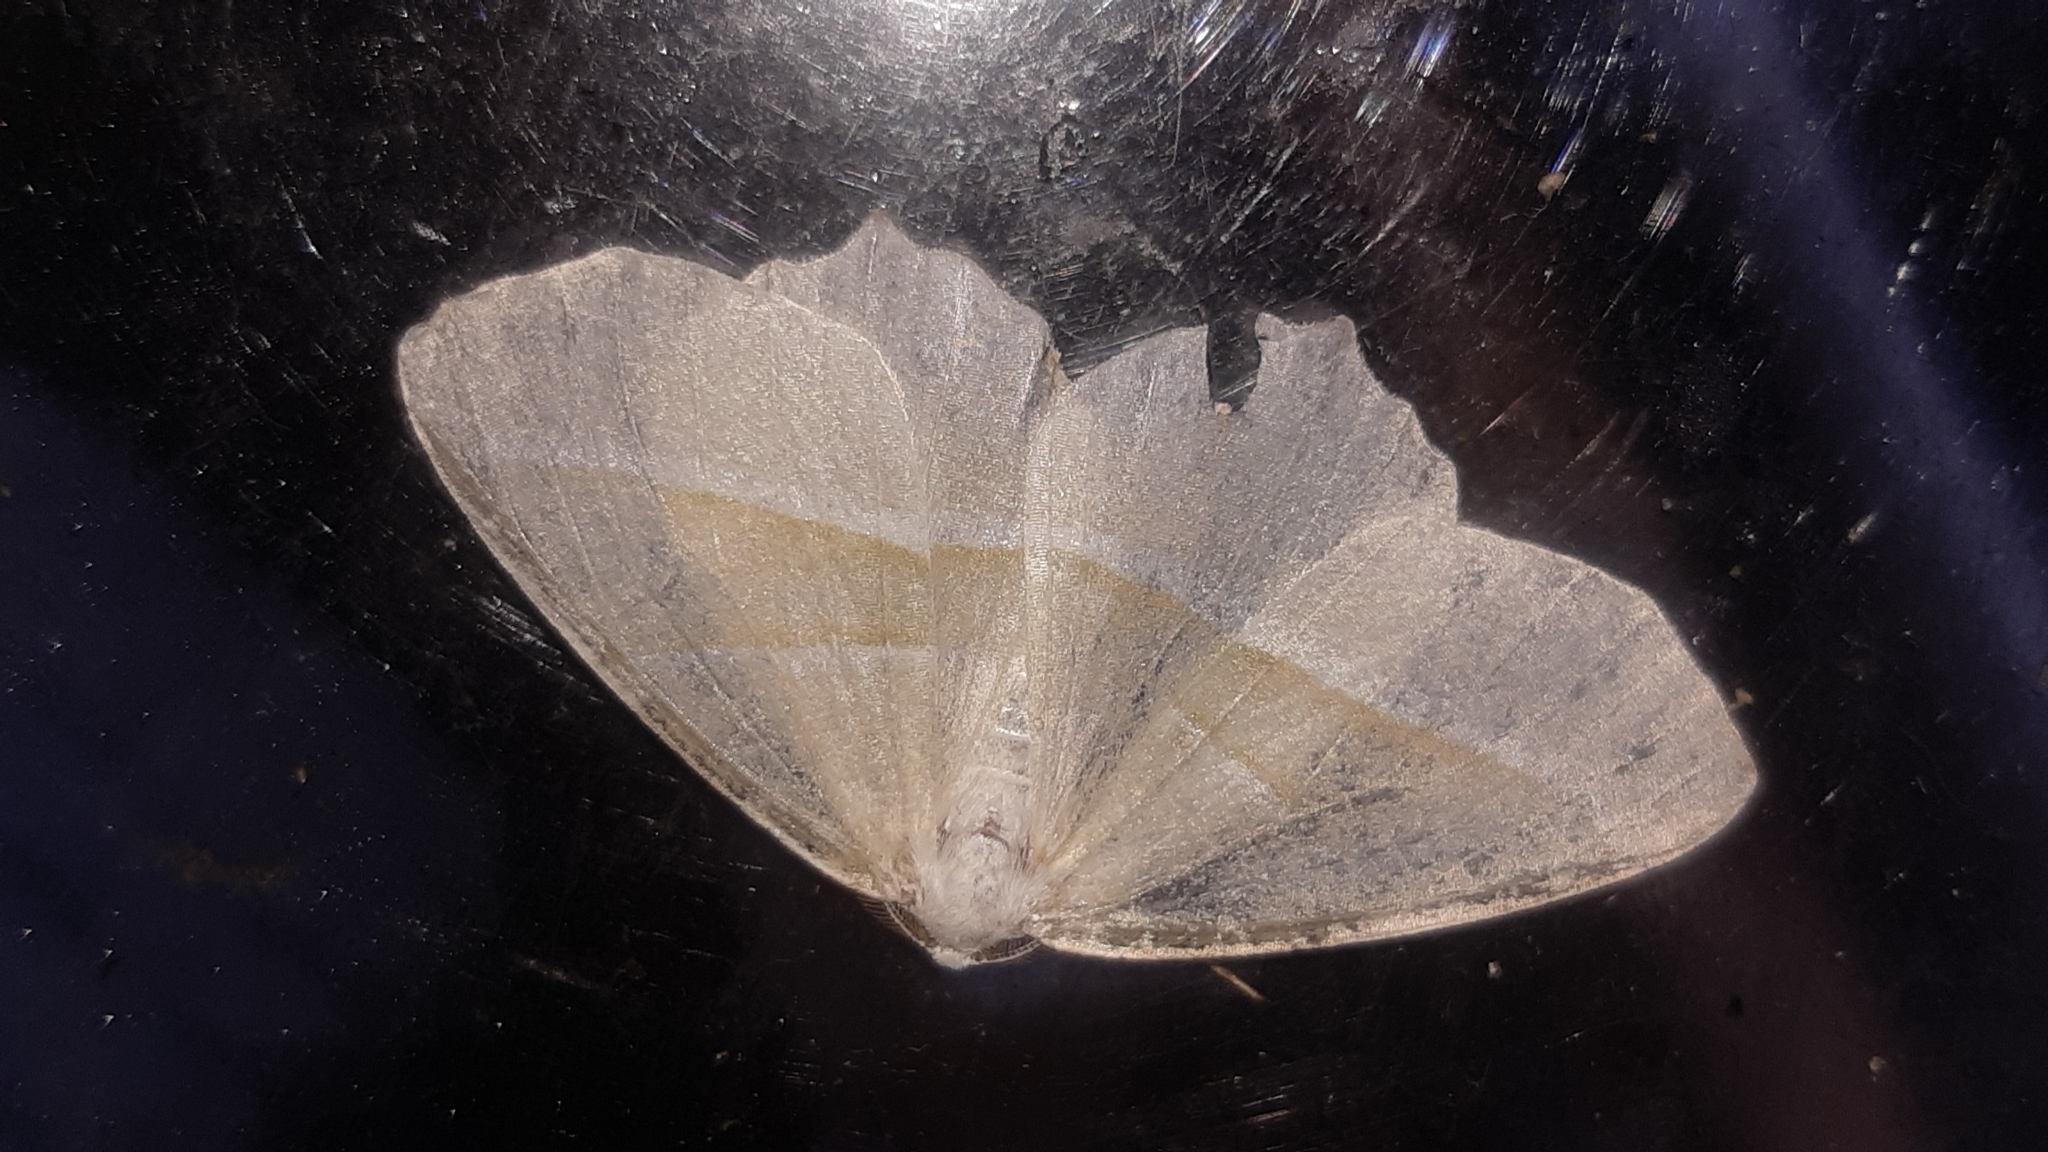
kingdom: Animalia
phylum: Arthropoda
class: Insecta
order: Lepidoptera
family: Geometridae
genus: Campaea
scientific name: Campaea margaritaria
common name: Light emerald
